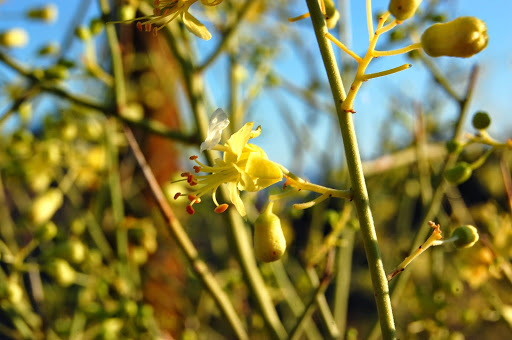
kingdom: Plantae
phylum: Tracheophyta
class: Magnoliopsida
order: Fabales
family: Fabaceae
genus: Parkinsonia
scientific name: Parkinsonia microphylla
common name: Yellow paloverde
